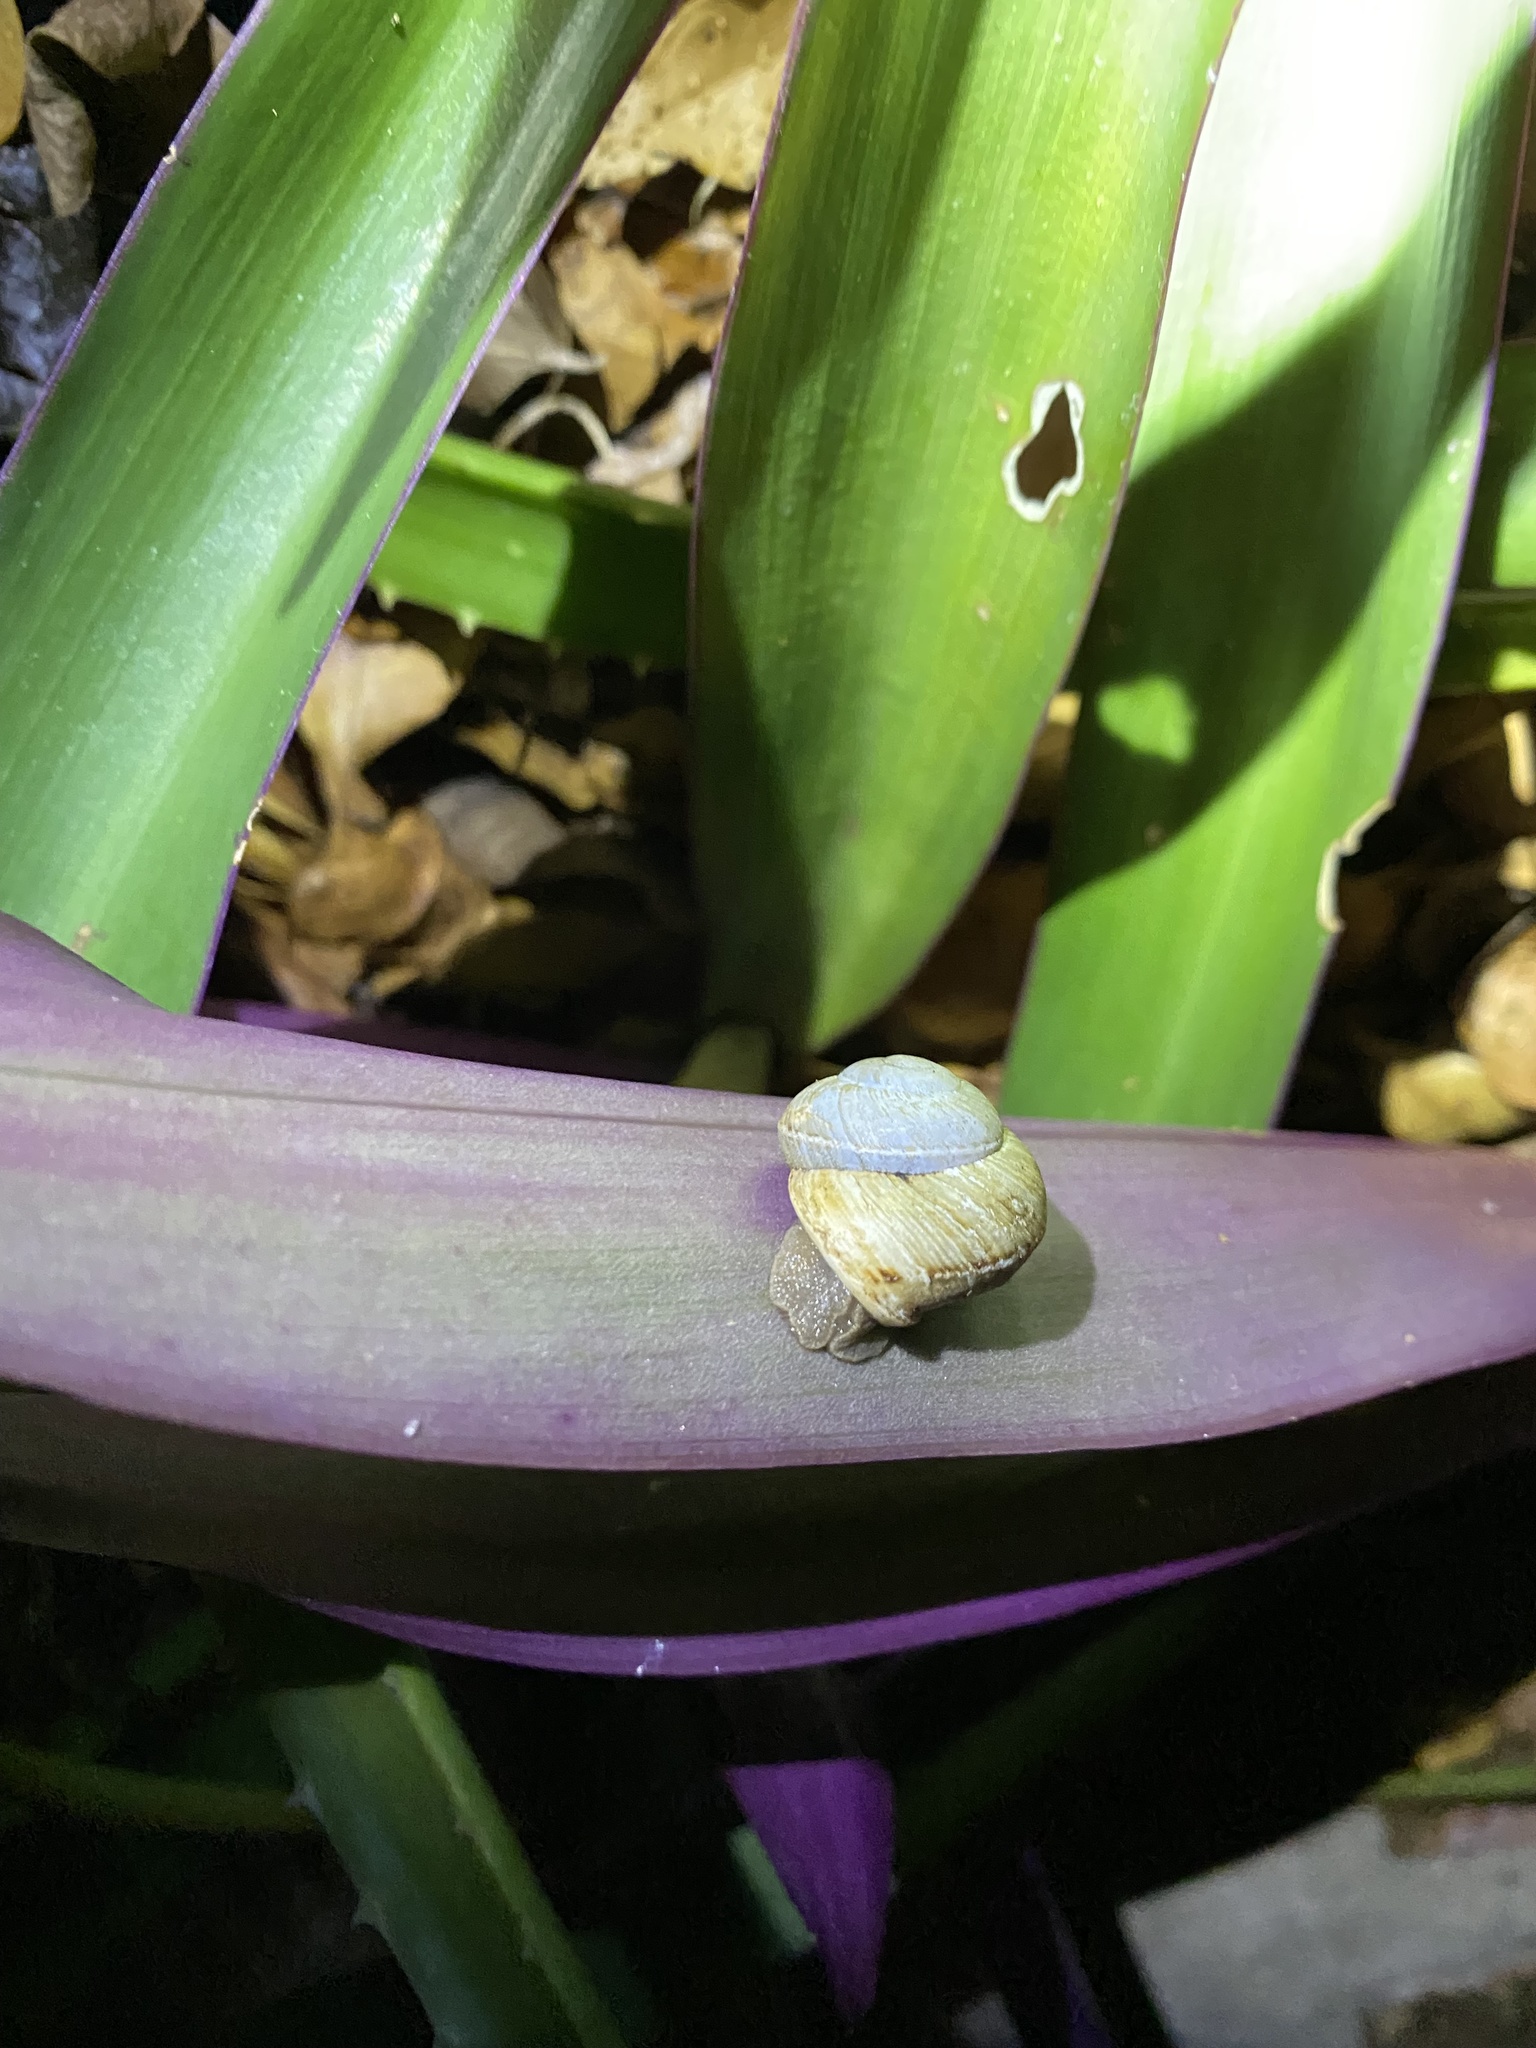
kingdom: Animalia
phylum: Mollusca
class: Gastropoda
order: Stylommatophora
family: Pleurodontidae
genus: Pleurodonte
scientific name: Pleurodonte incerta
